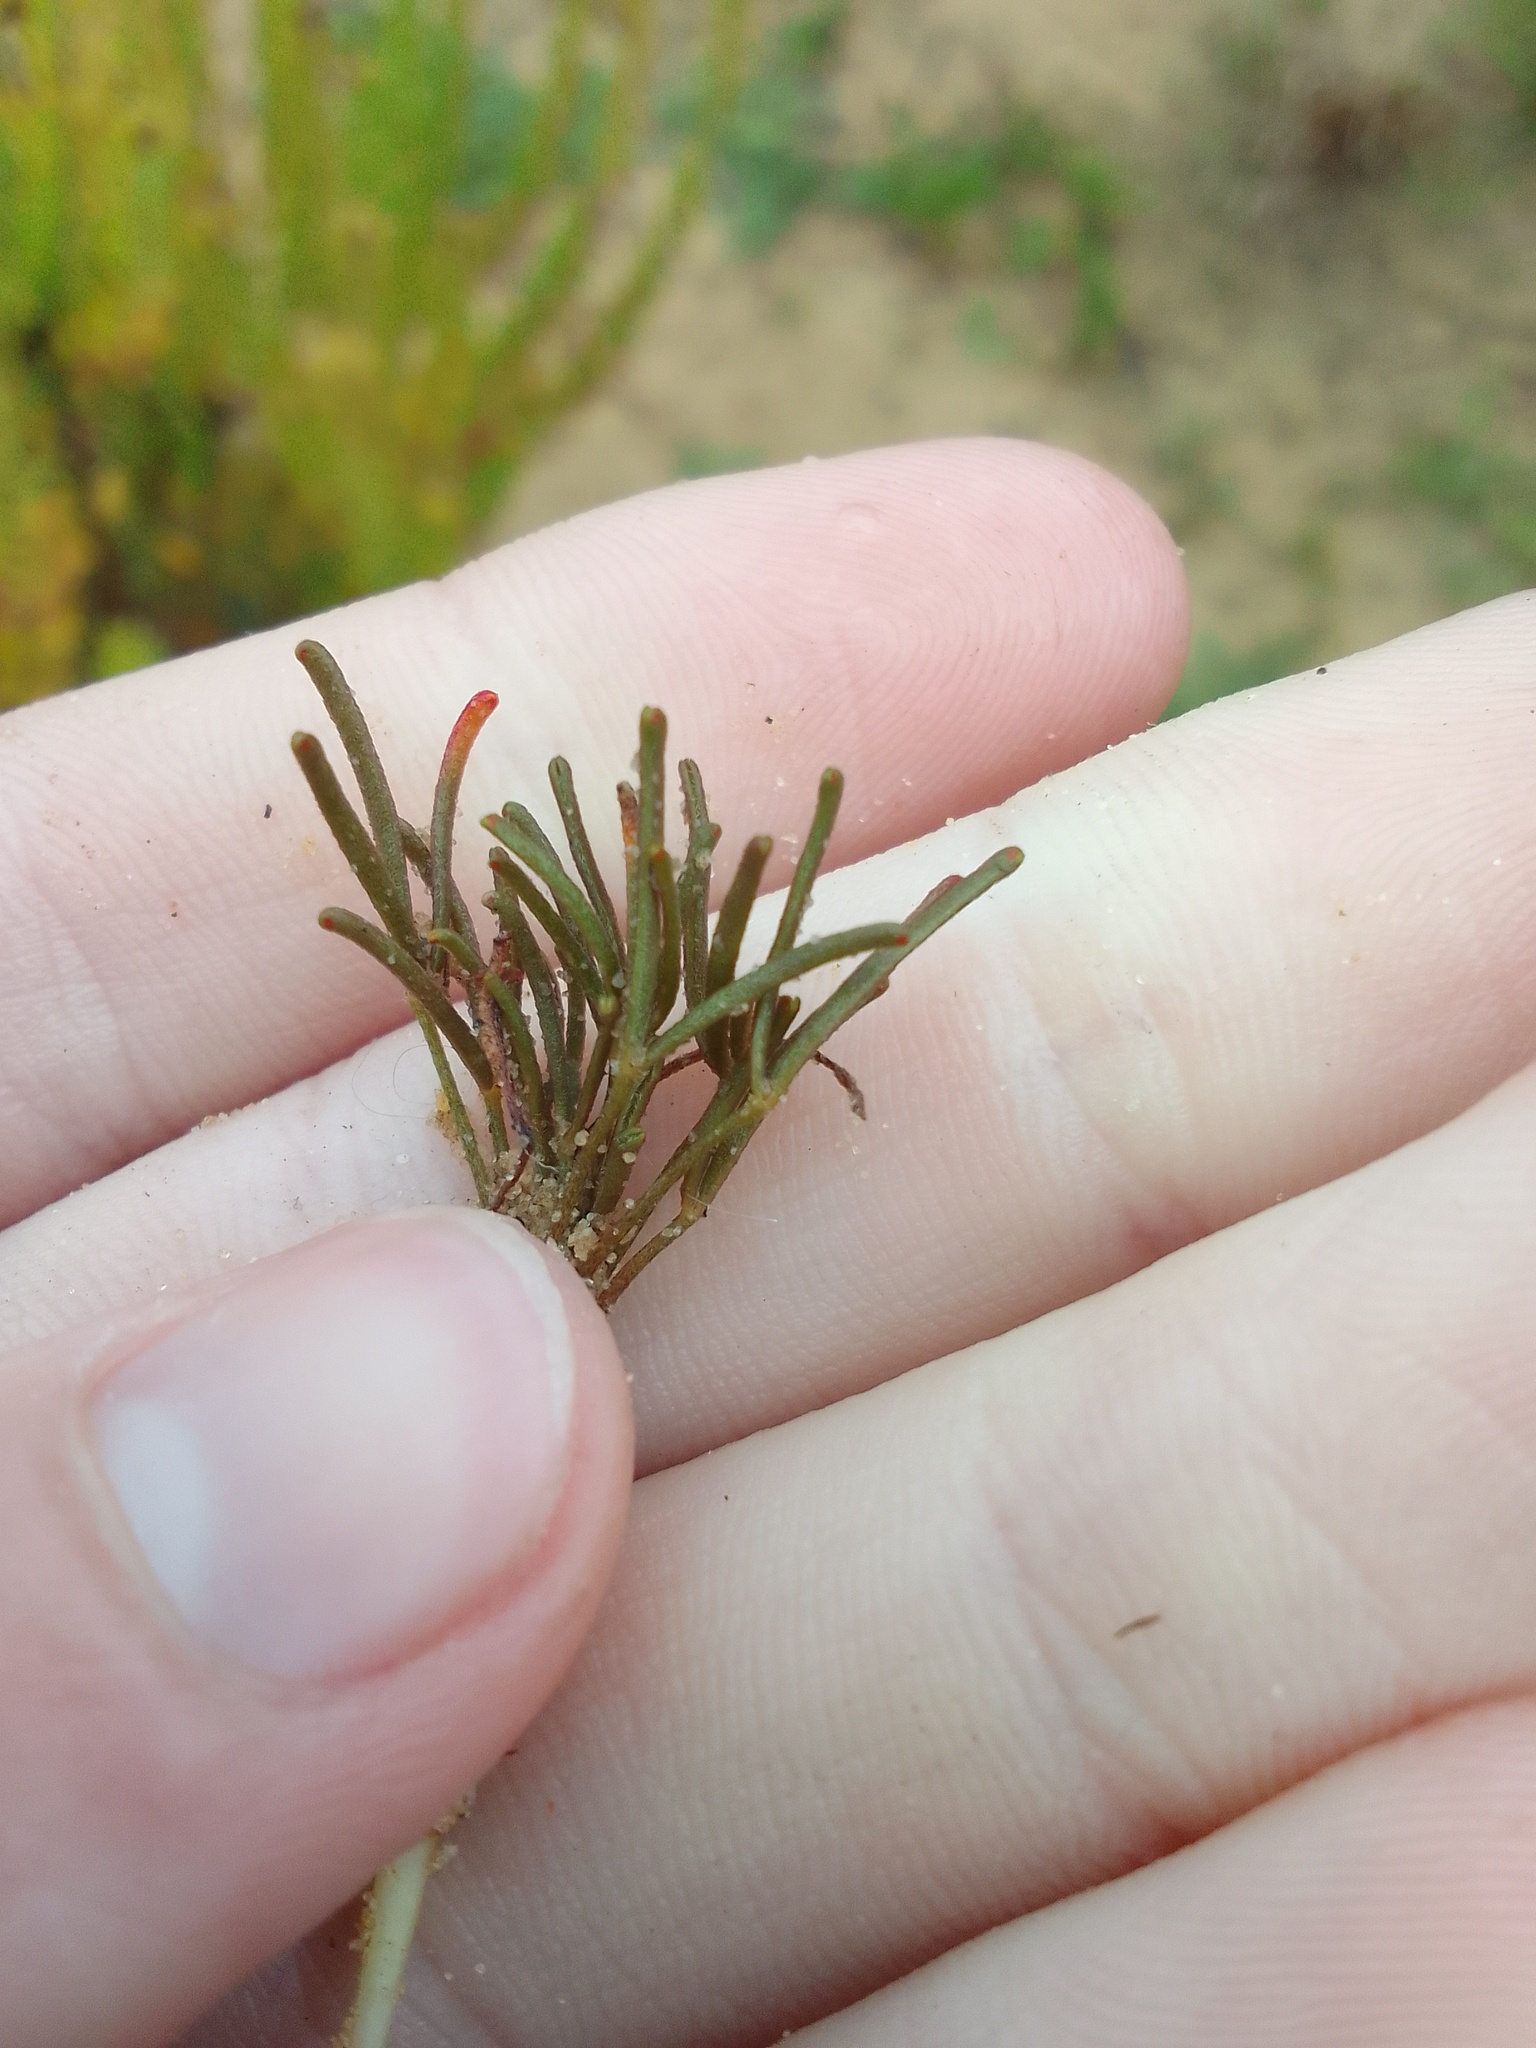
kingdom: Plantae
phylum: Tracheophyta
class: Magnoliopsida
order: Oxalidales
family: Oxalidaceae
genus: Oxalis
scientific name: Oxalis argyrophylla
